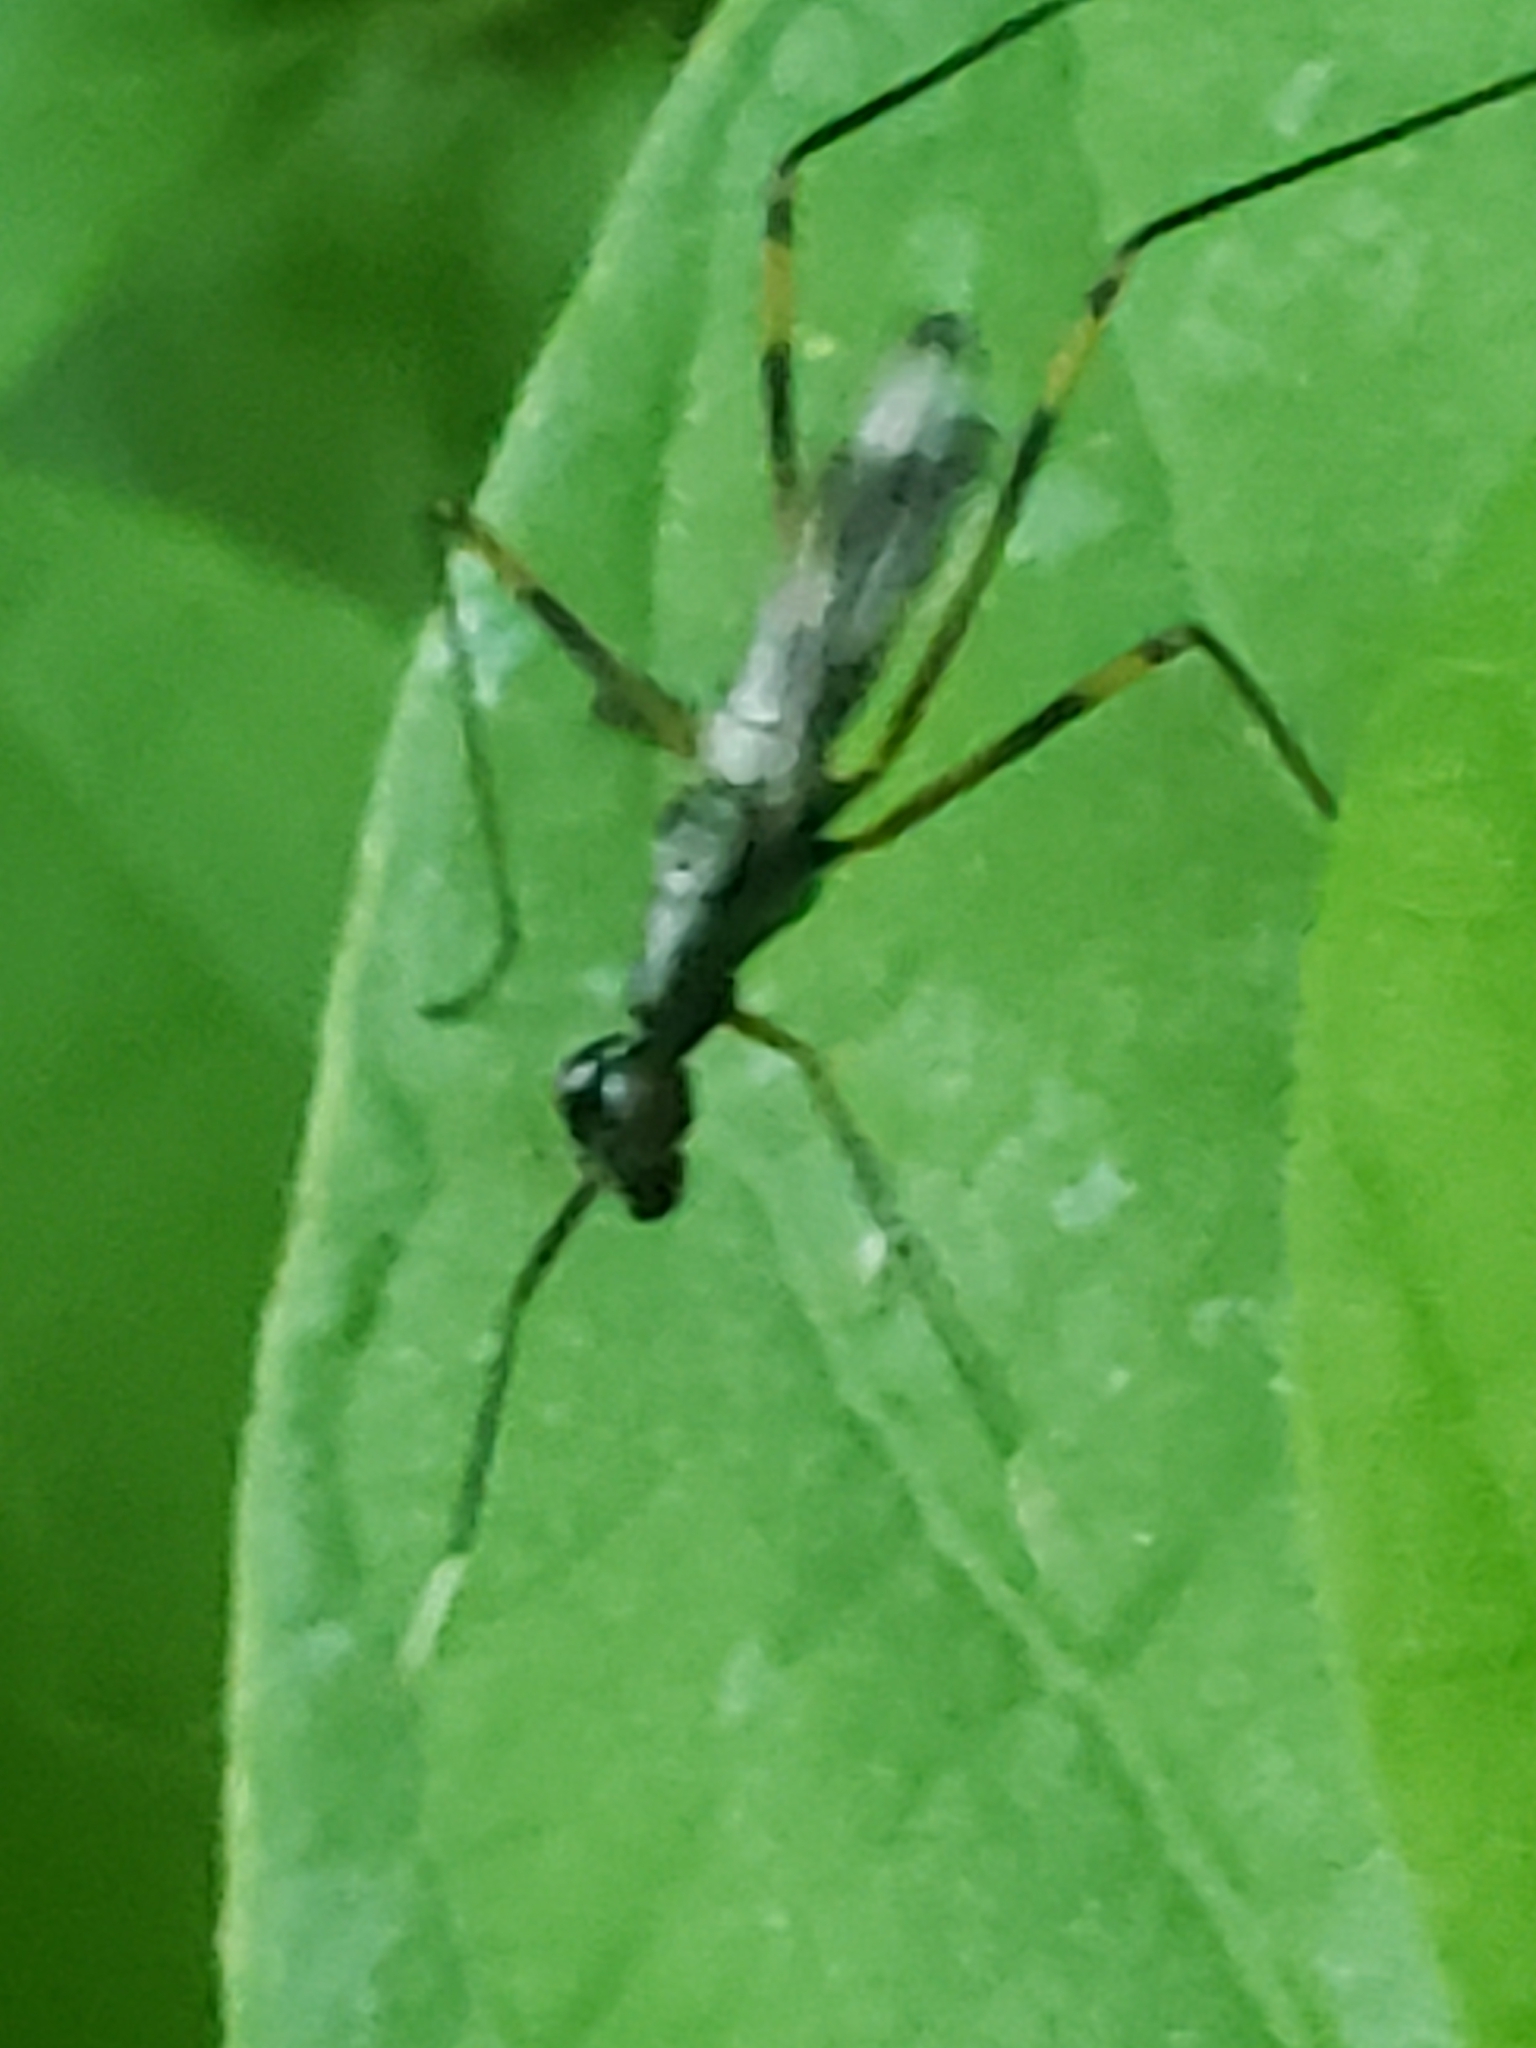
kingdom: Animalia
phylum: Arthropoda
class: Insecta
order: Diptera
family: Micropezidae
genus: Rainieria
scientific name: Rainieria antennaepes
